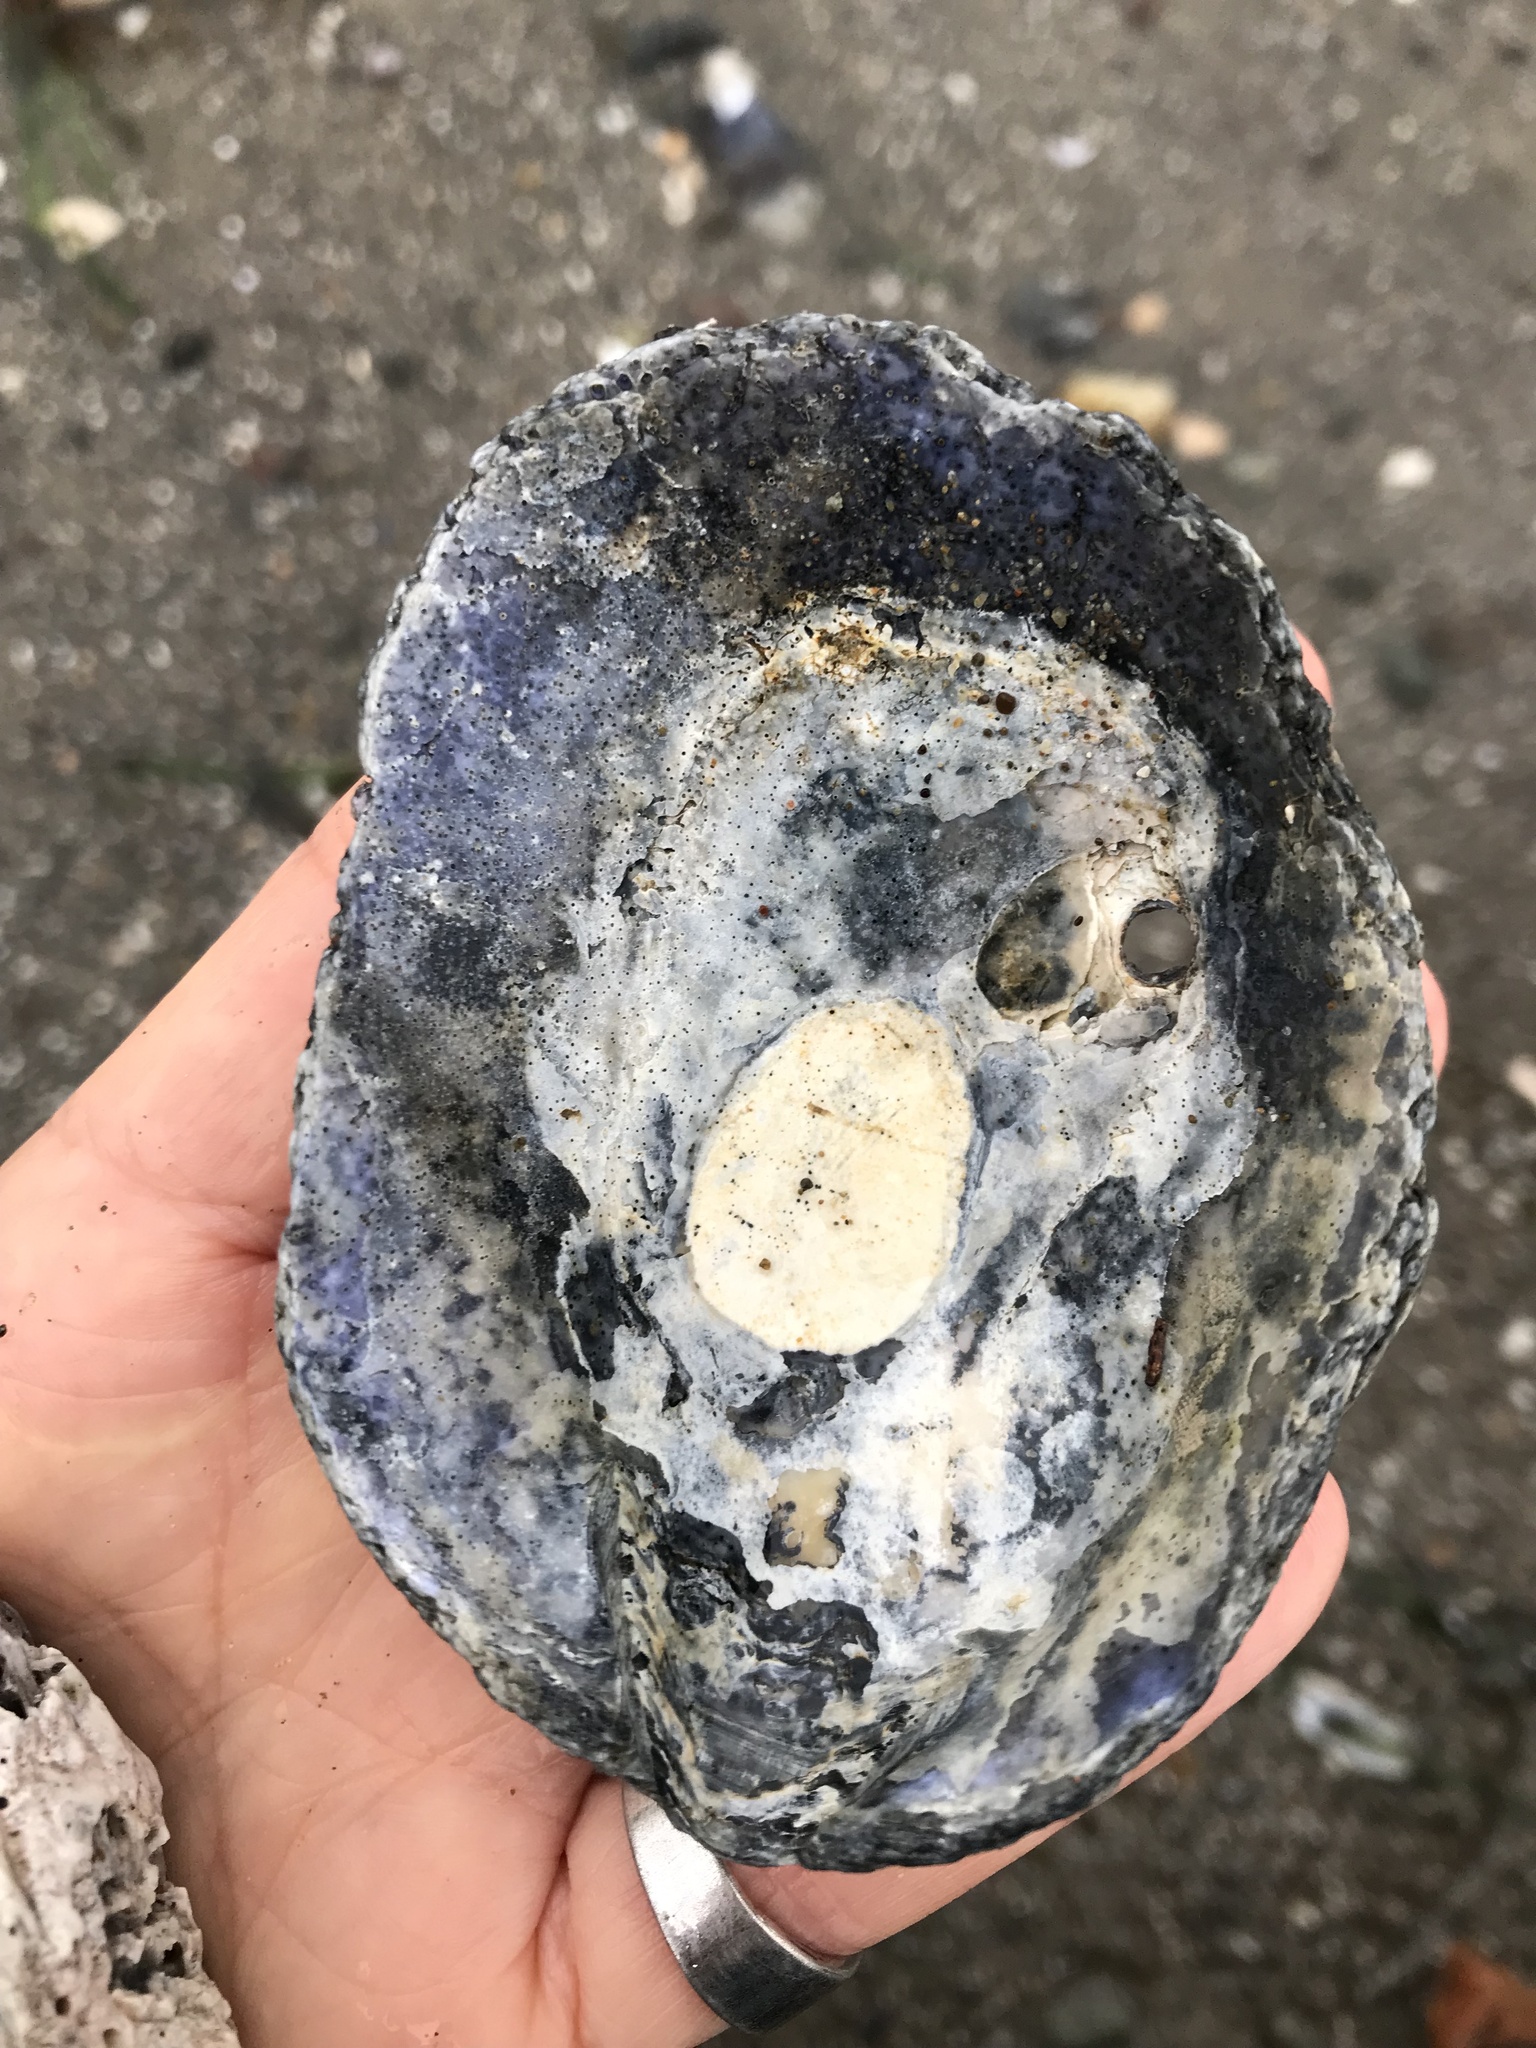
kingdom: Animalia
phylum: Mollusca
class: Bivalvia
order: Pectinida
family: Anomiidae
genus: Pododesmus
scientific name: Pododesmus macrochisma
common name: Alaska jingle
